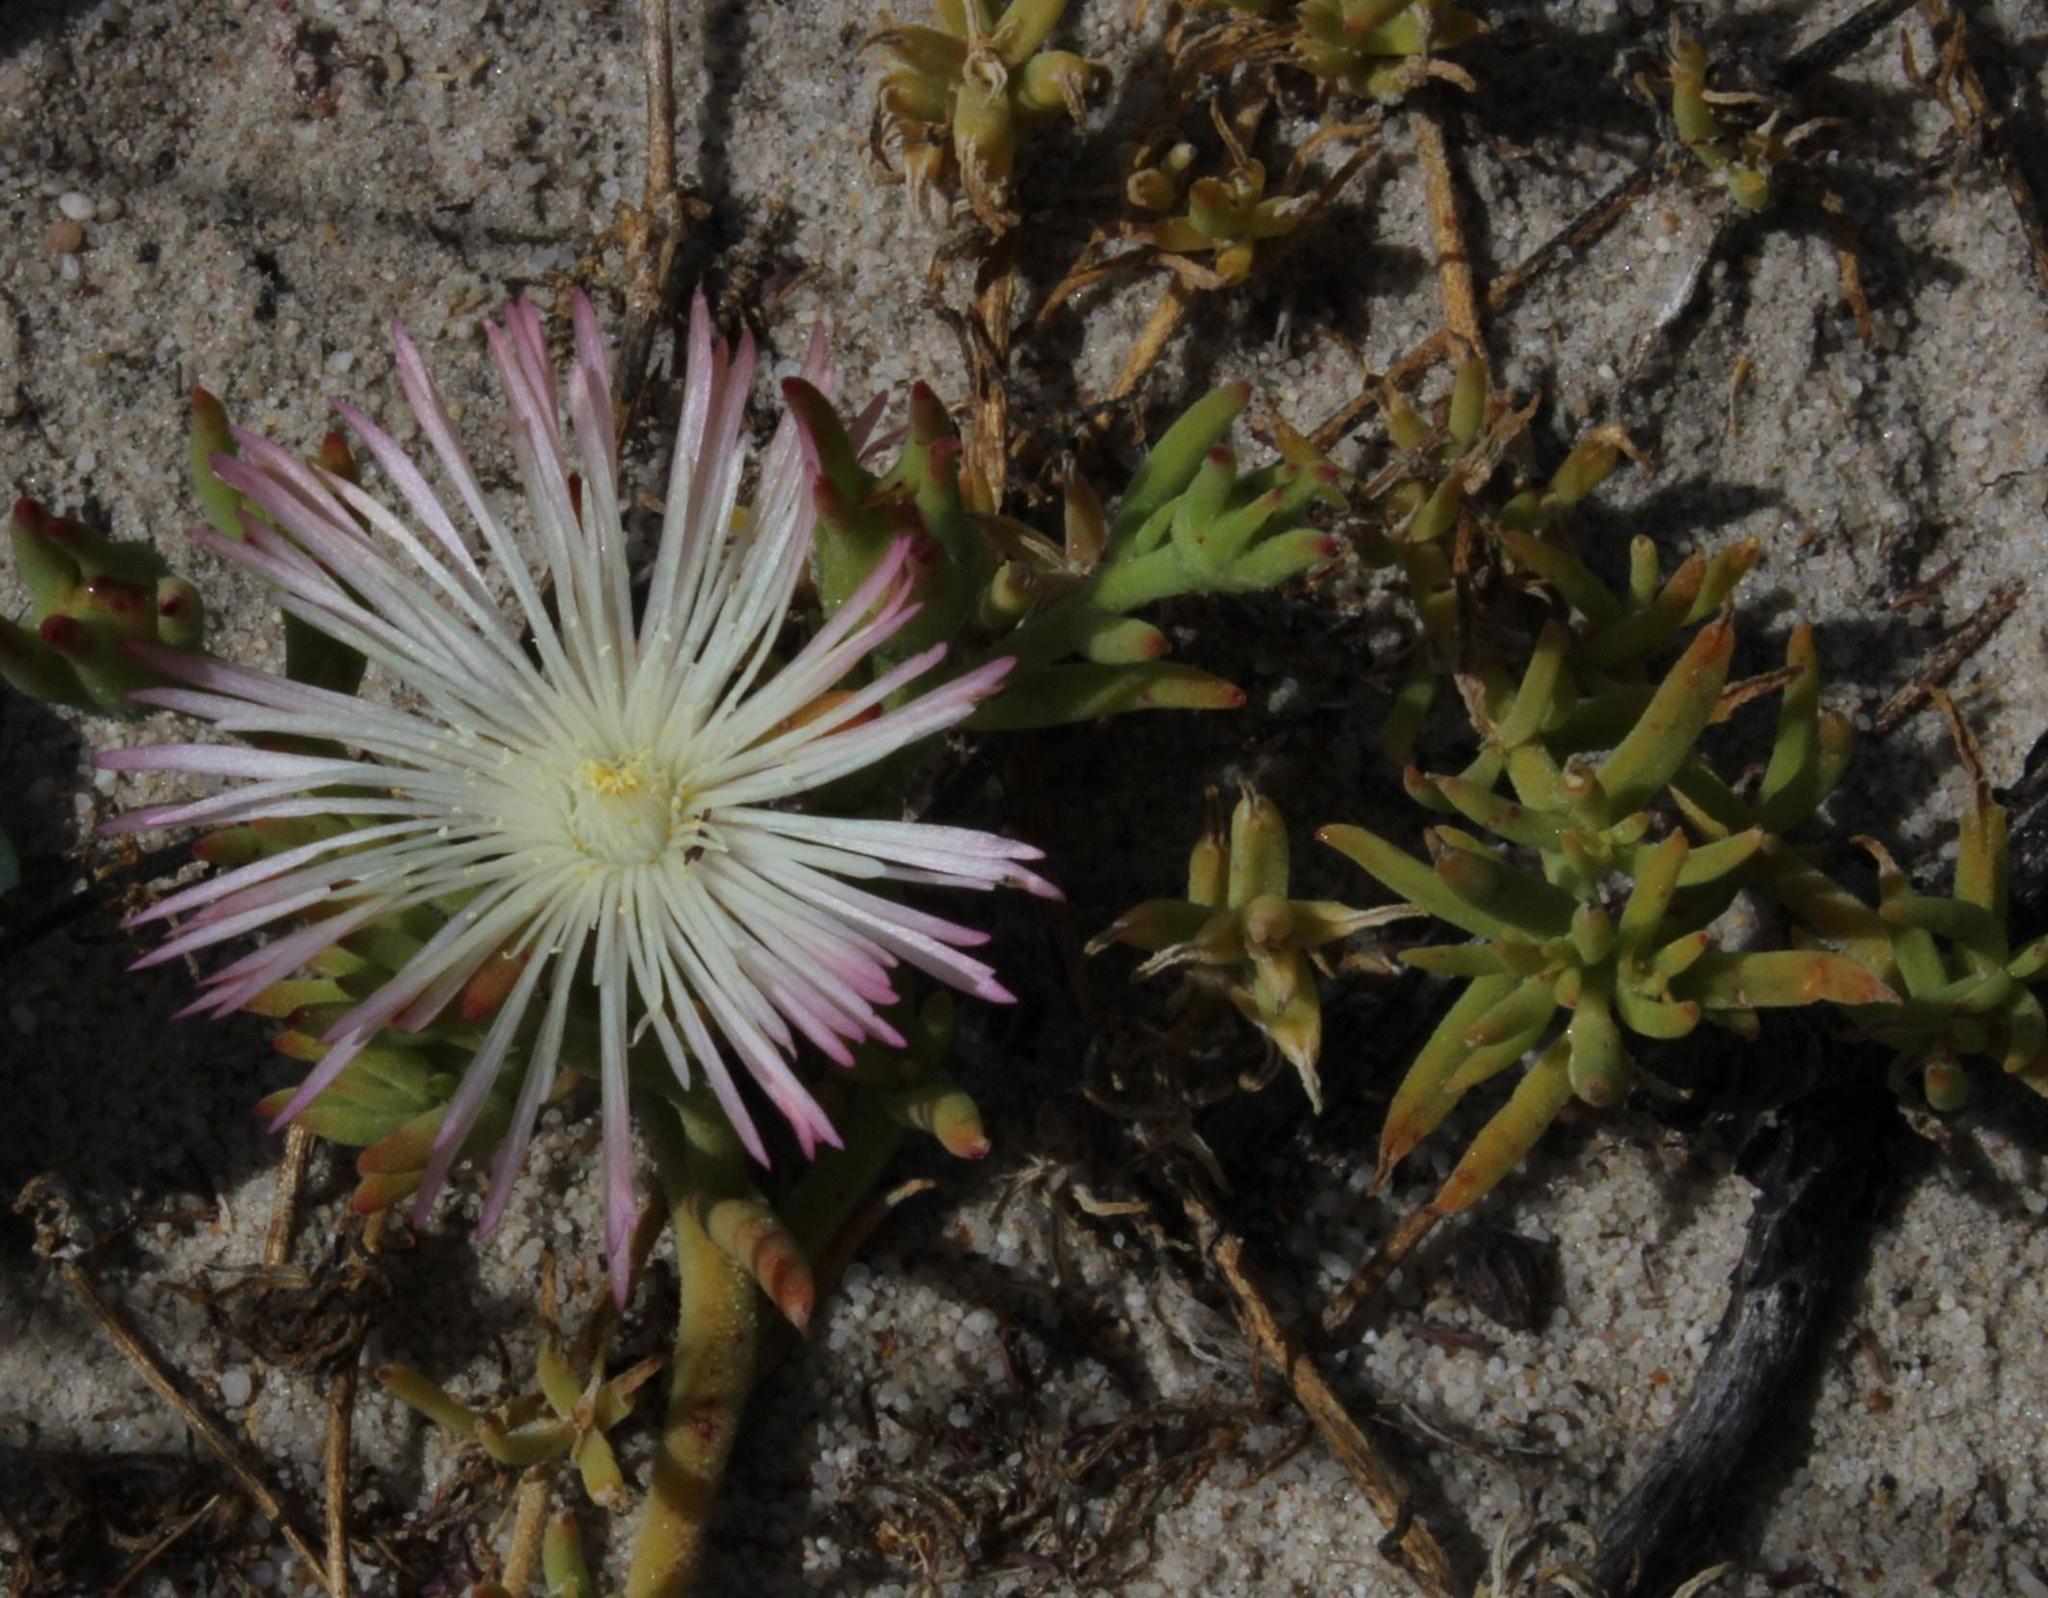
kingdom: Plantae
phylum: Tracheophyta
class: Magnoliopsida
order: Caryophyllales
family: Aizoaceae
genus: Mesembryanthemum
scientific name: Mesembryanthemum canaliculatum
